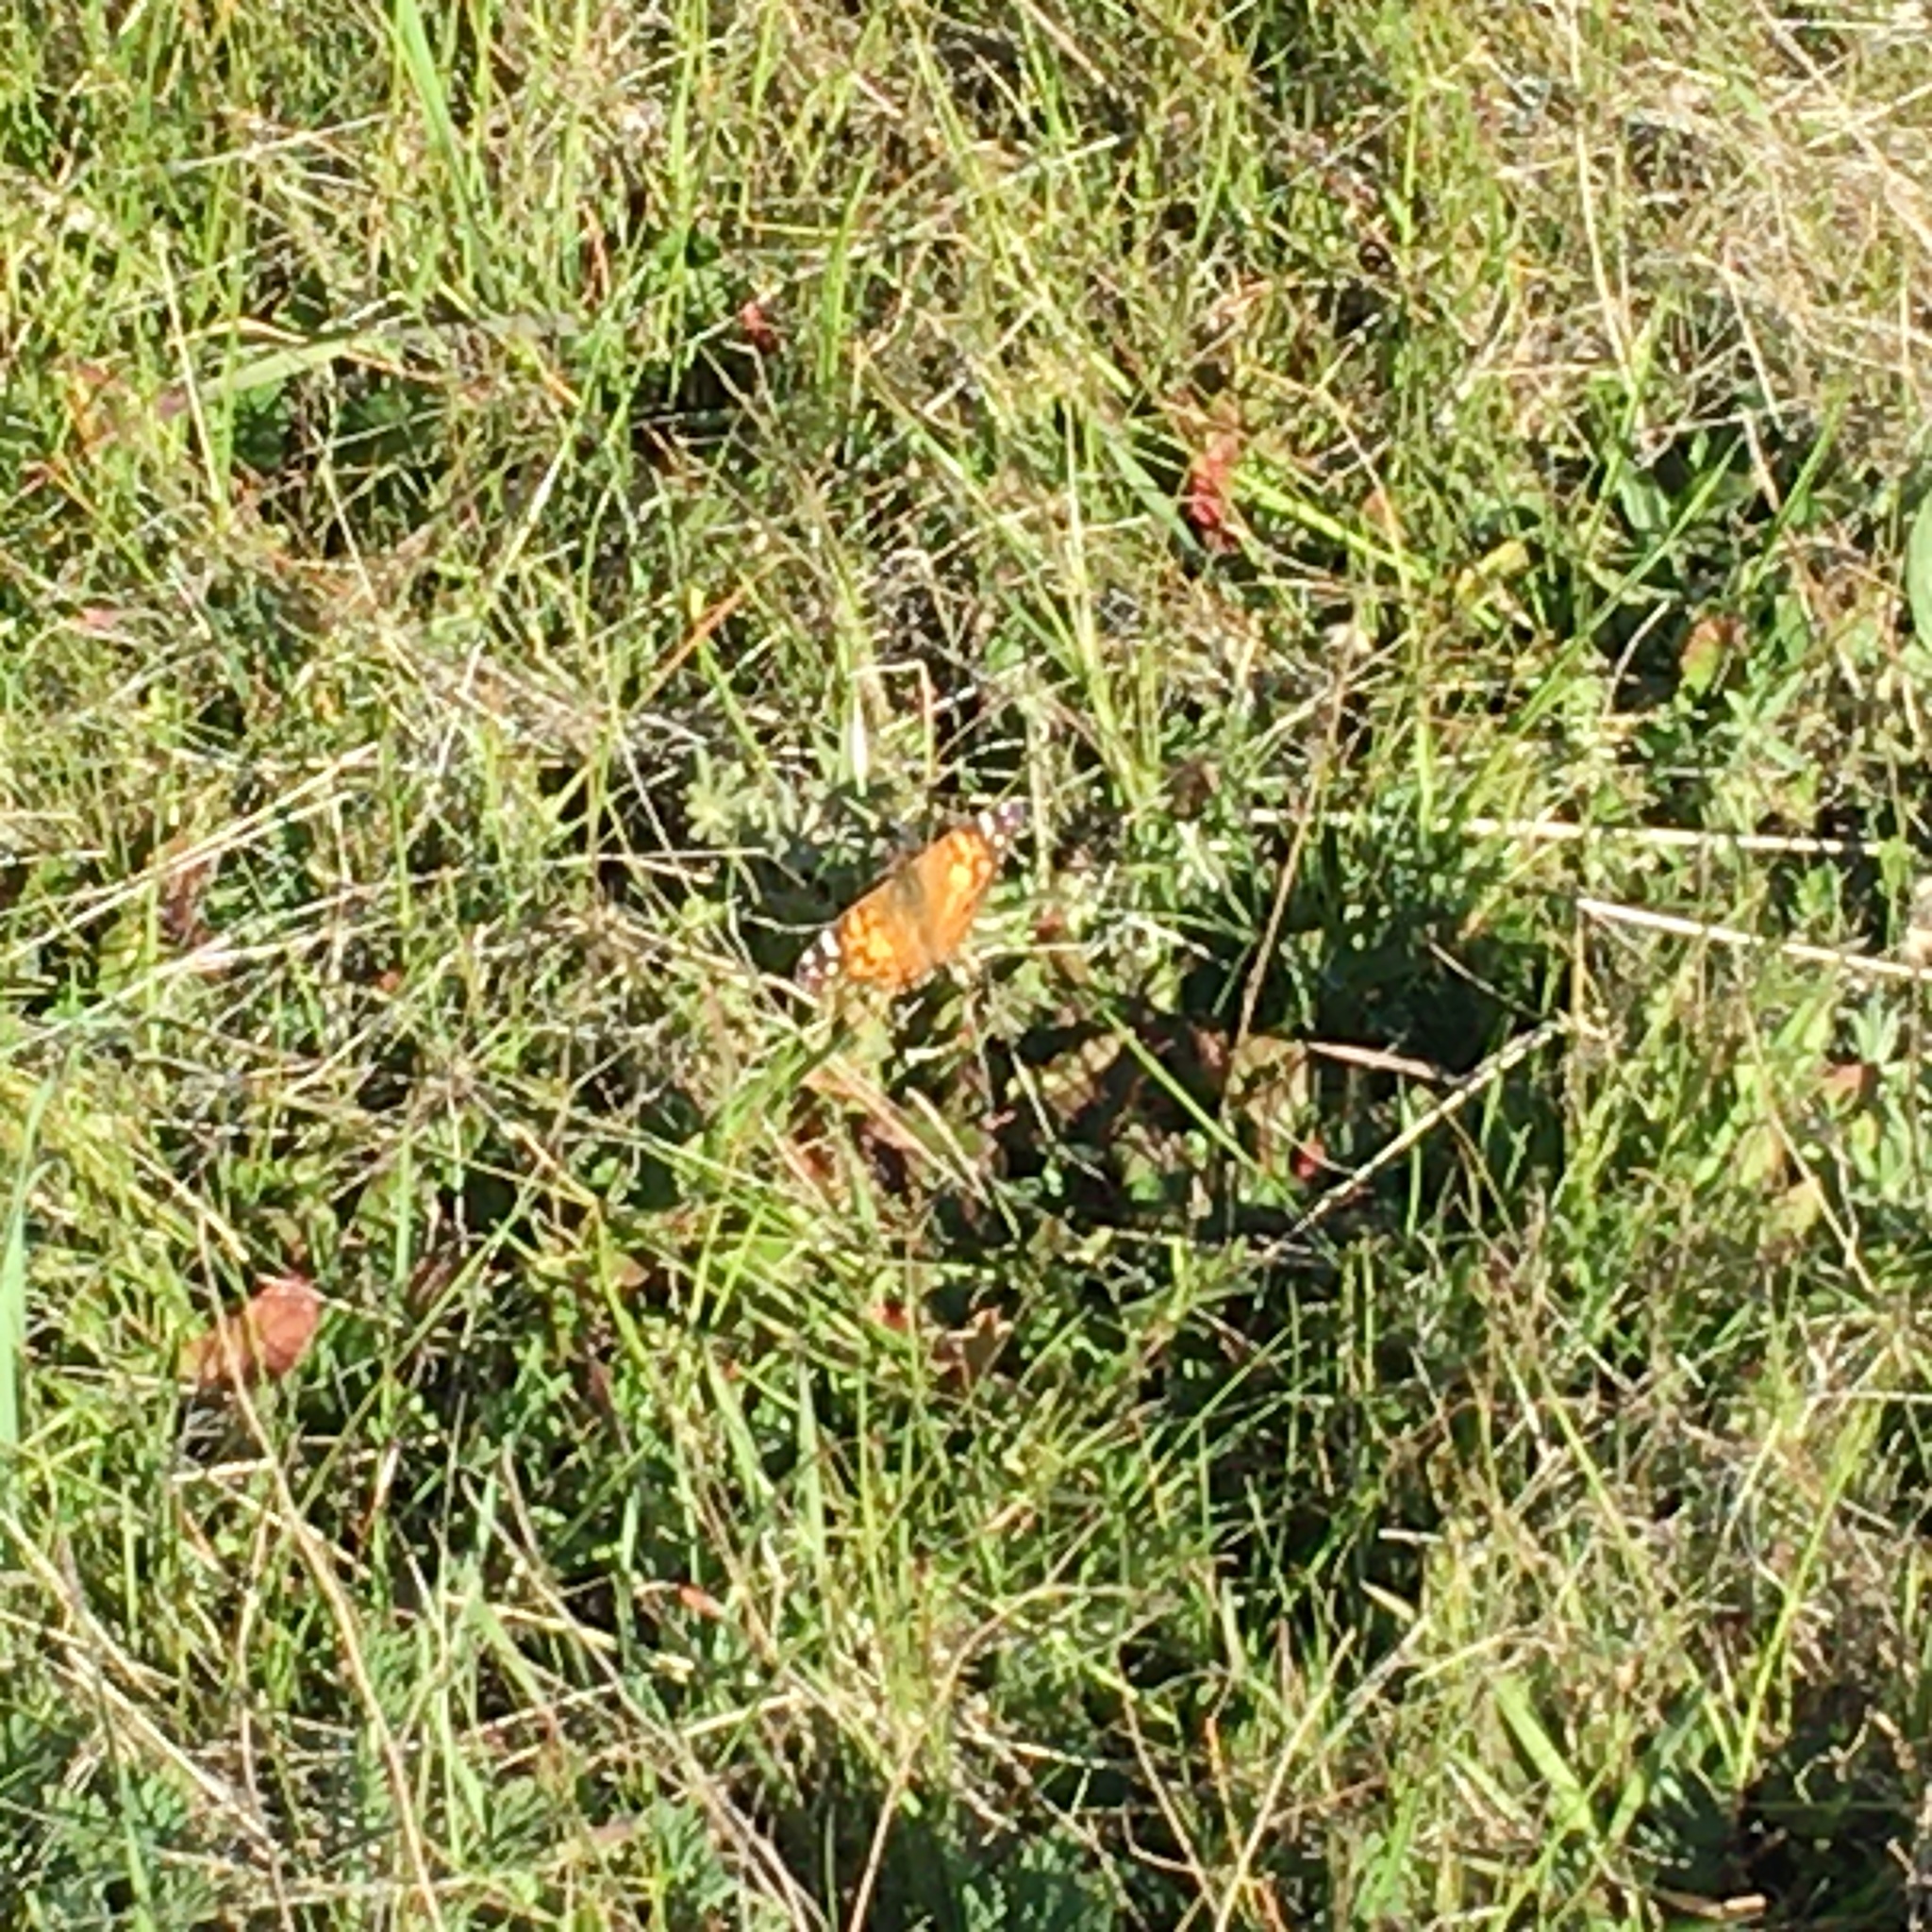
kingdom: Animalia
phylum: Arthropoda
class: Insecta
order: Lepidoptera
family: Nymphalidae
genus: Vanessa
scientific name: Vanessa virginiensis
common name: American lady
